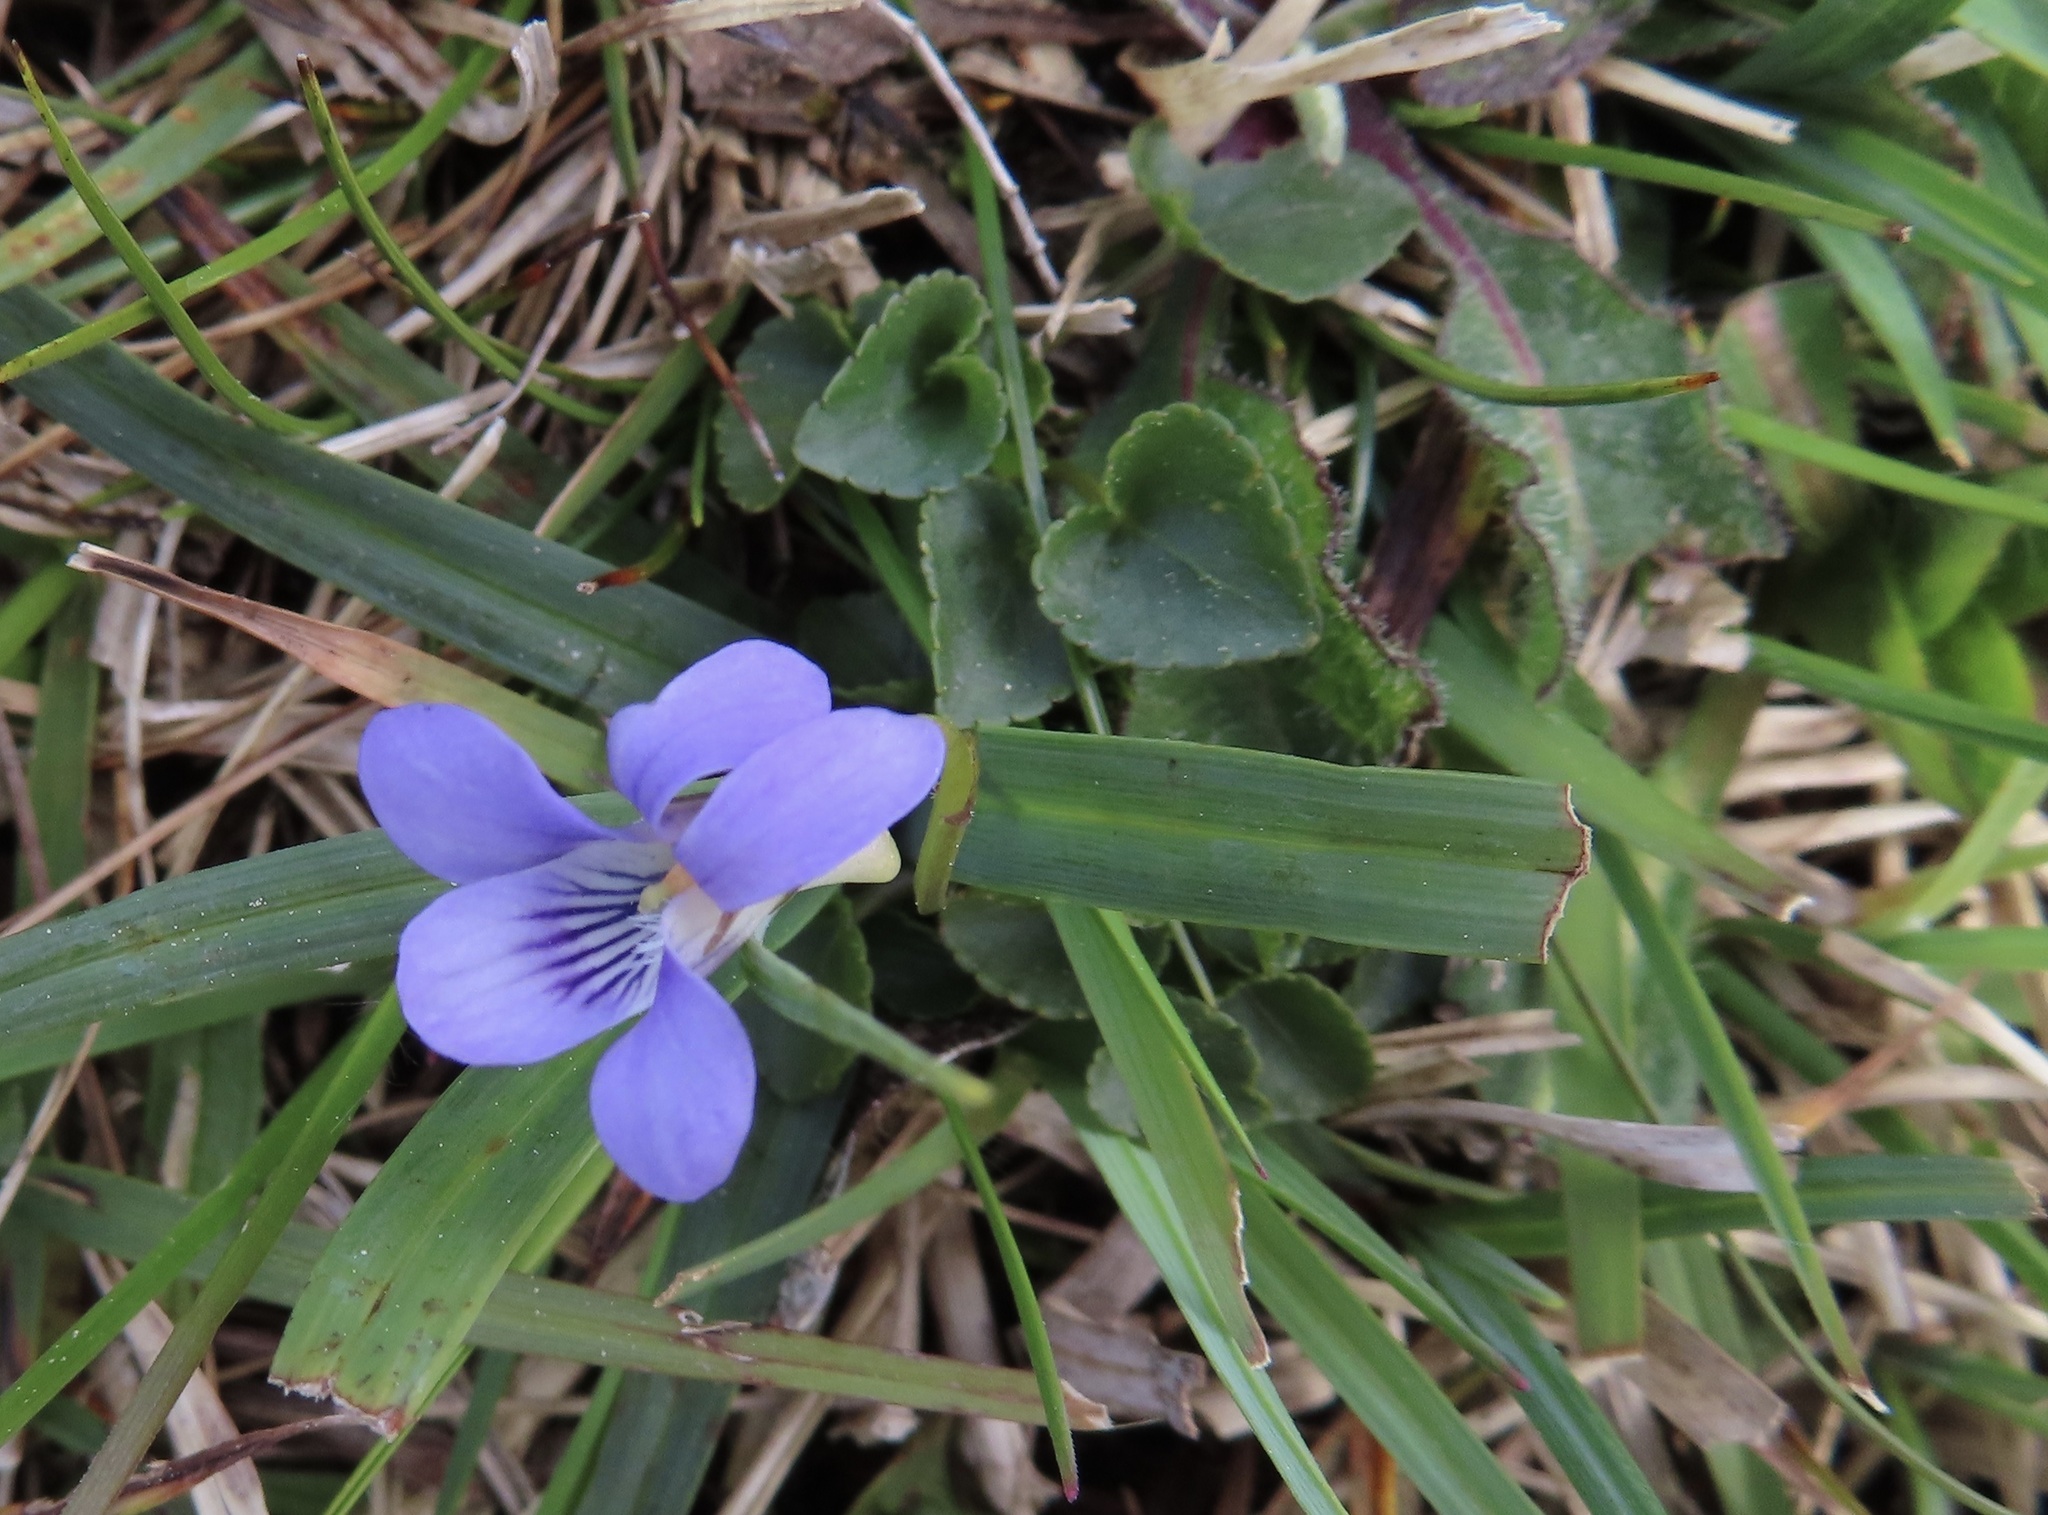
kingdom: Plantae
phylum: Tracheophyta
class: Magnoliopsida
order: Malpighiales
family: Violaceae
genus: Viola
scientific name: Viola riviniana
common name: Common dog-violet
